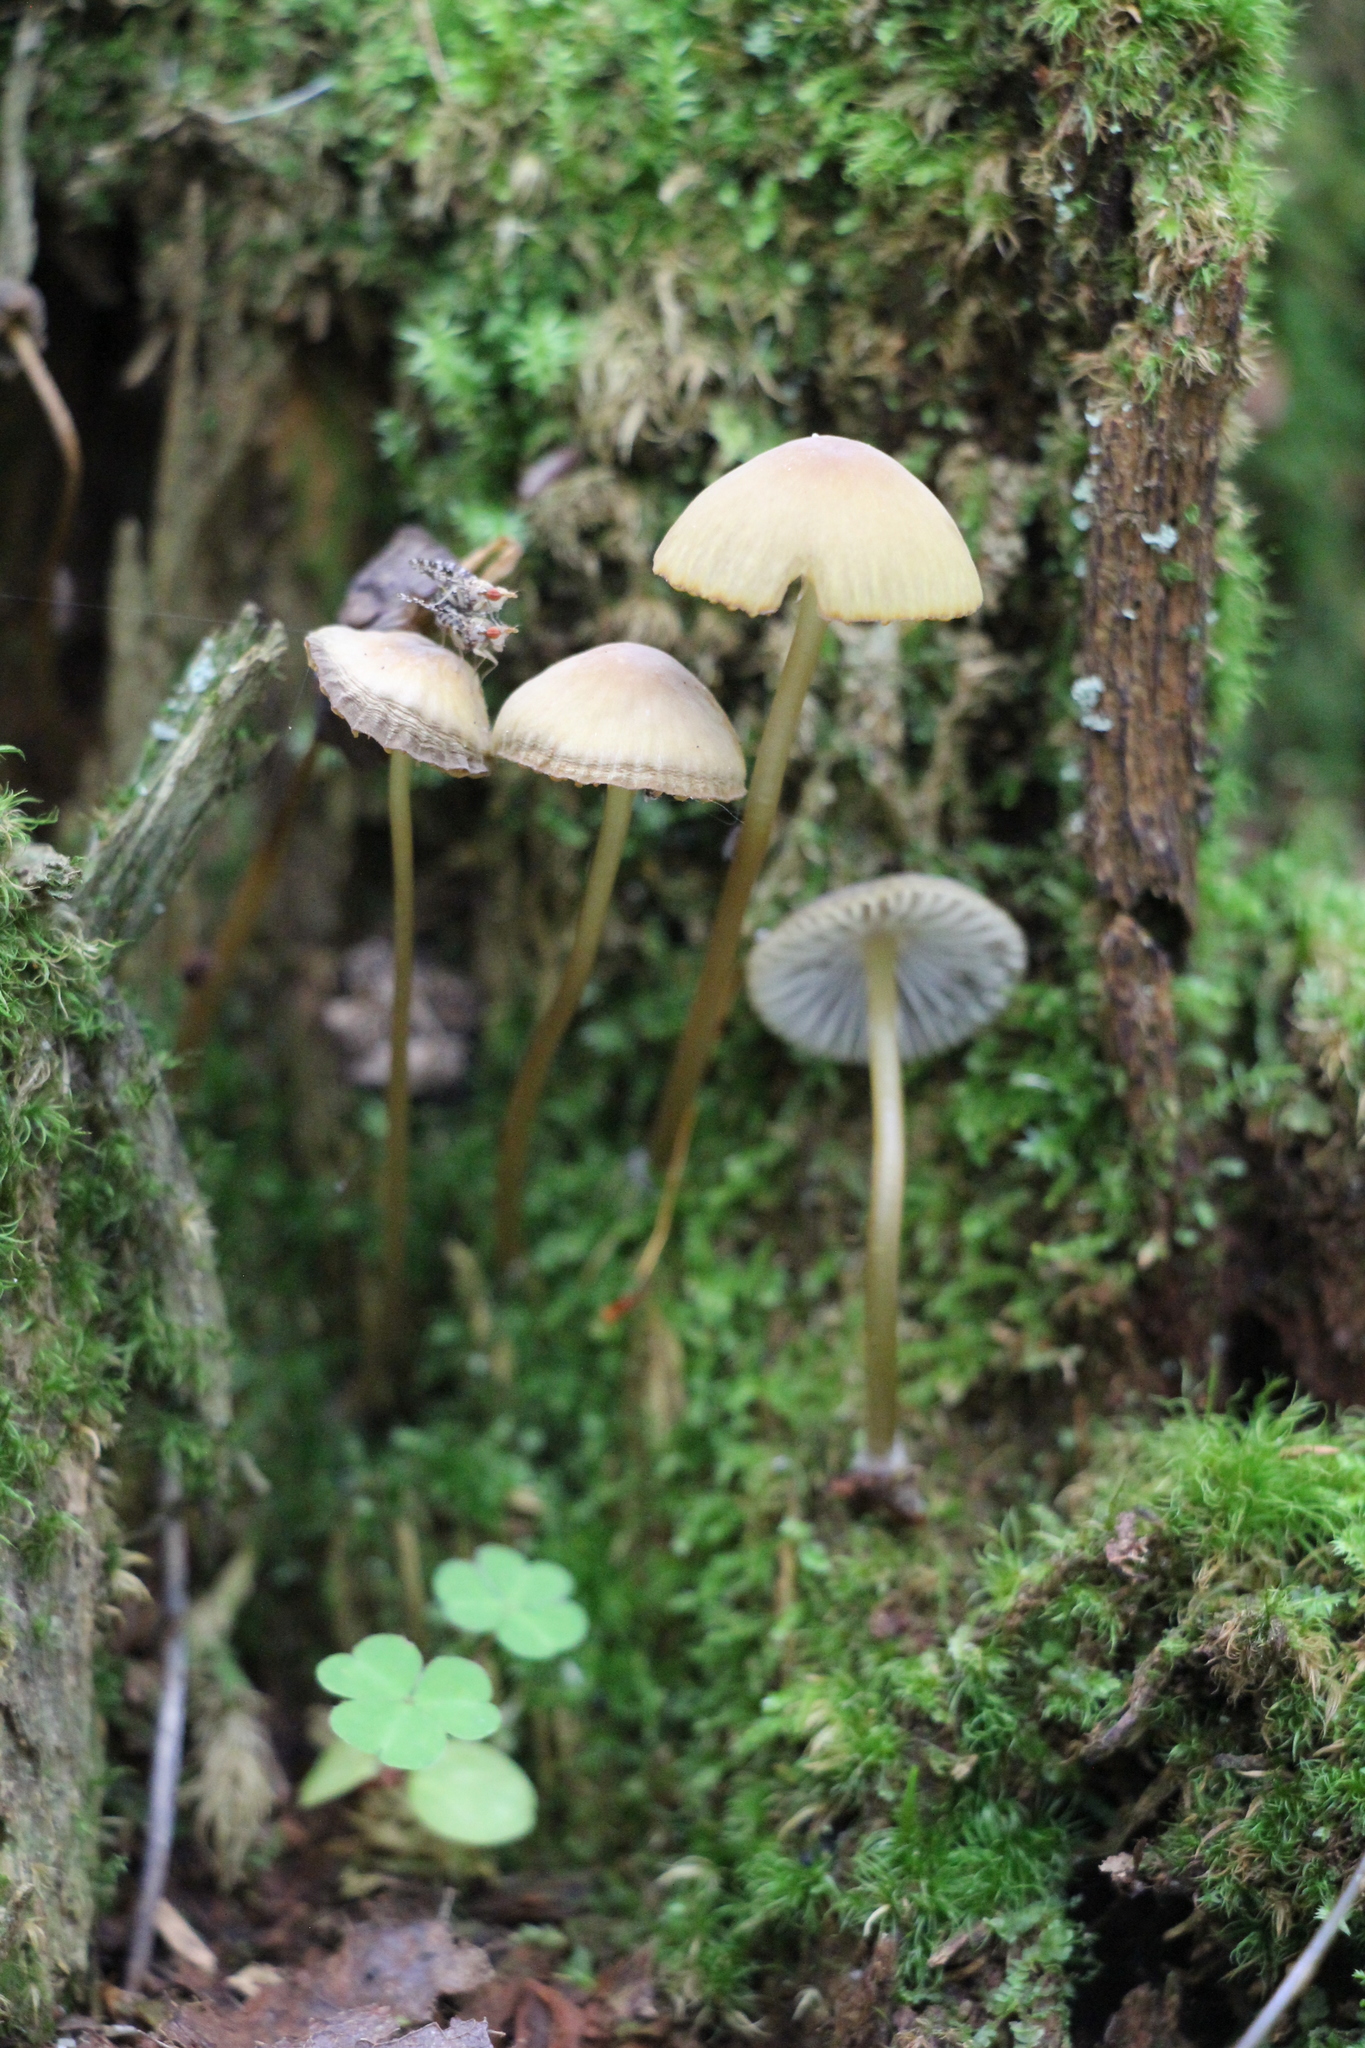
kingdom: Fungi
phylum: Basidiomycota
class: Agaricomycetes
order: Agaricales
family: Mycenaceae
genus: Mycena
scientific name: Mycena viridimarginata
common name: Olive edge bonnet
